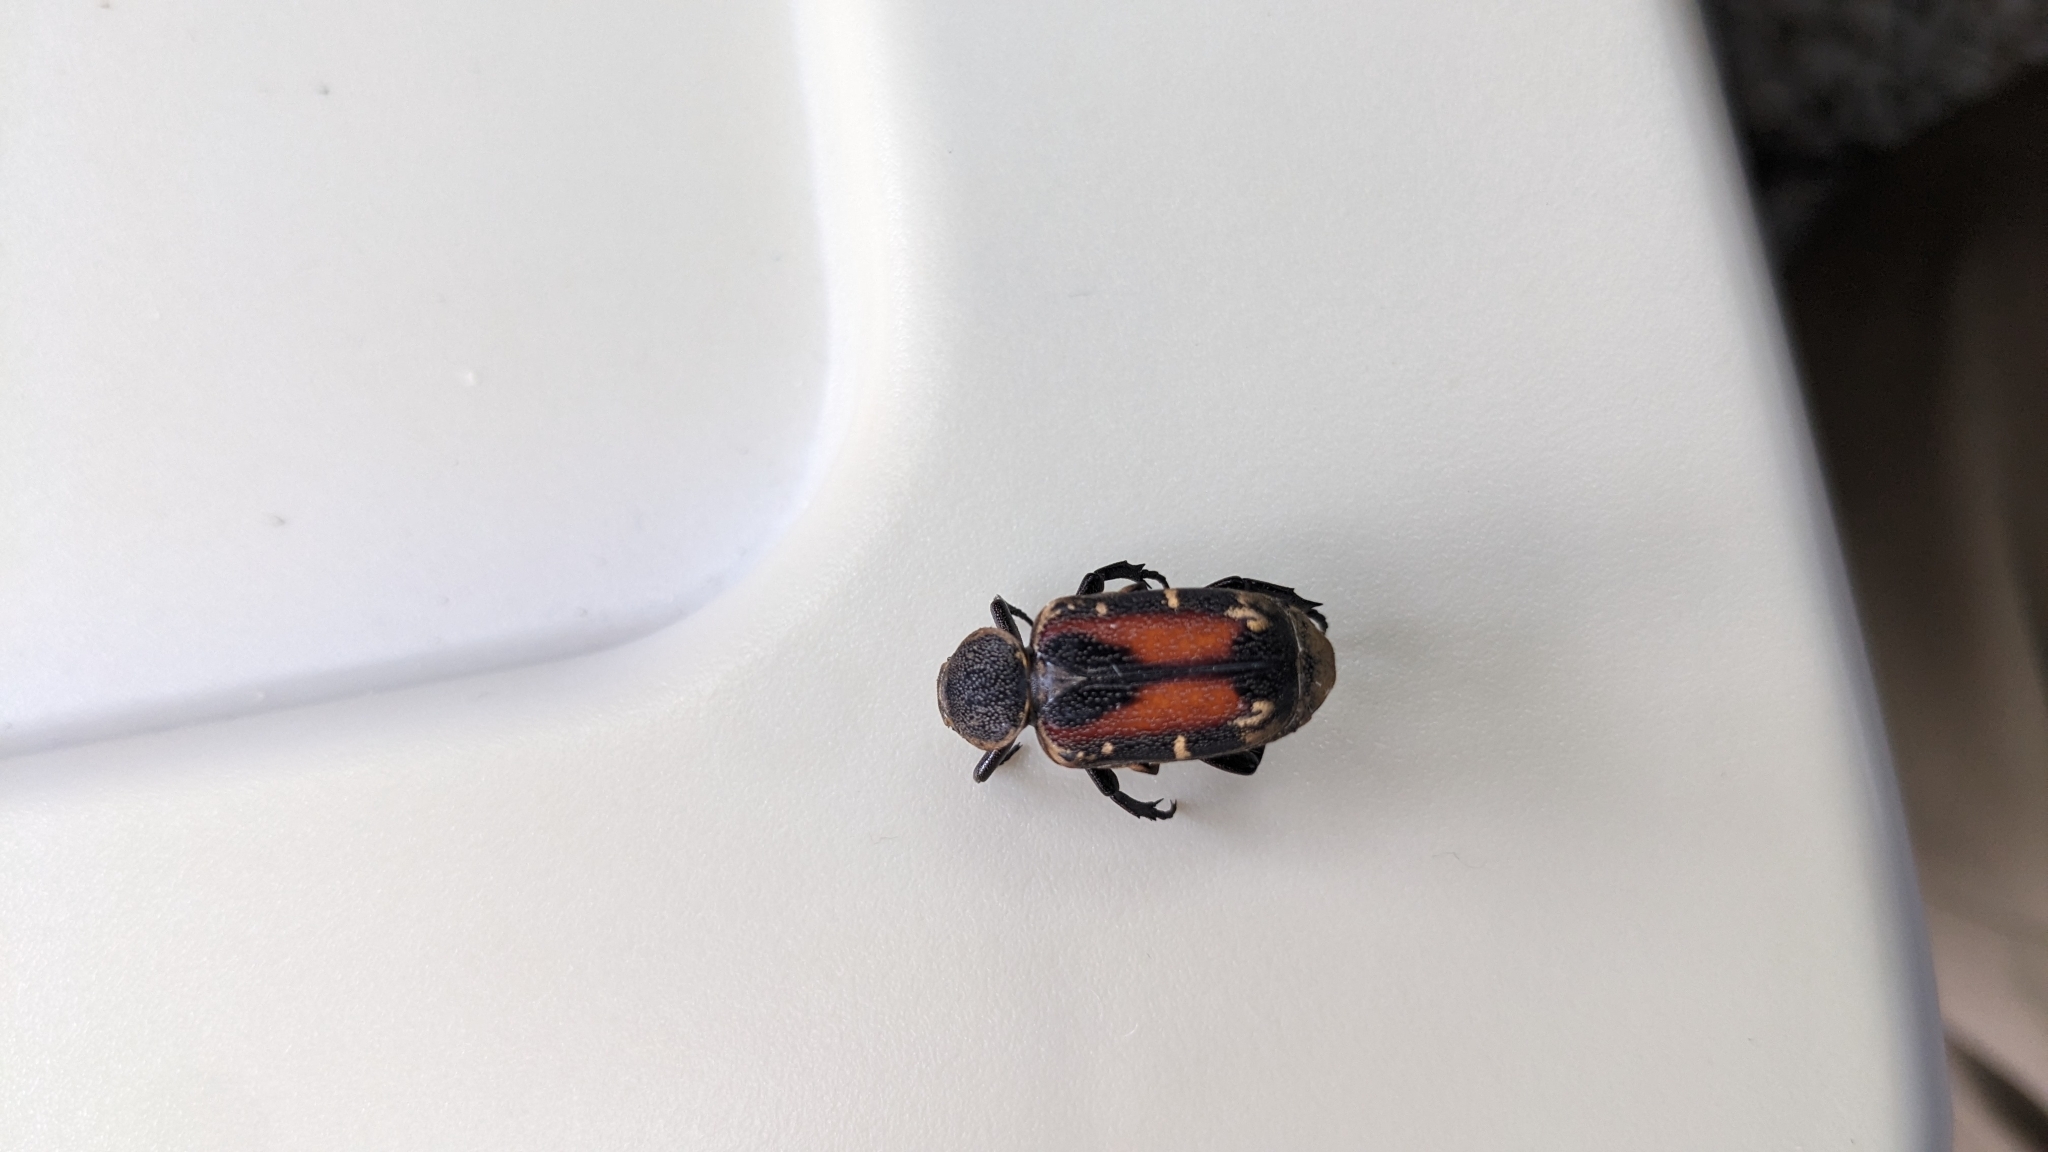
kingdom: Animalia
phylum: Arthropoda
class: Insecta
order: Coleoptera
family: Scarabaeidae
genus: Clinterocera
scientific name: Clinterocera nigra
